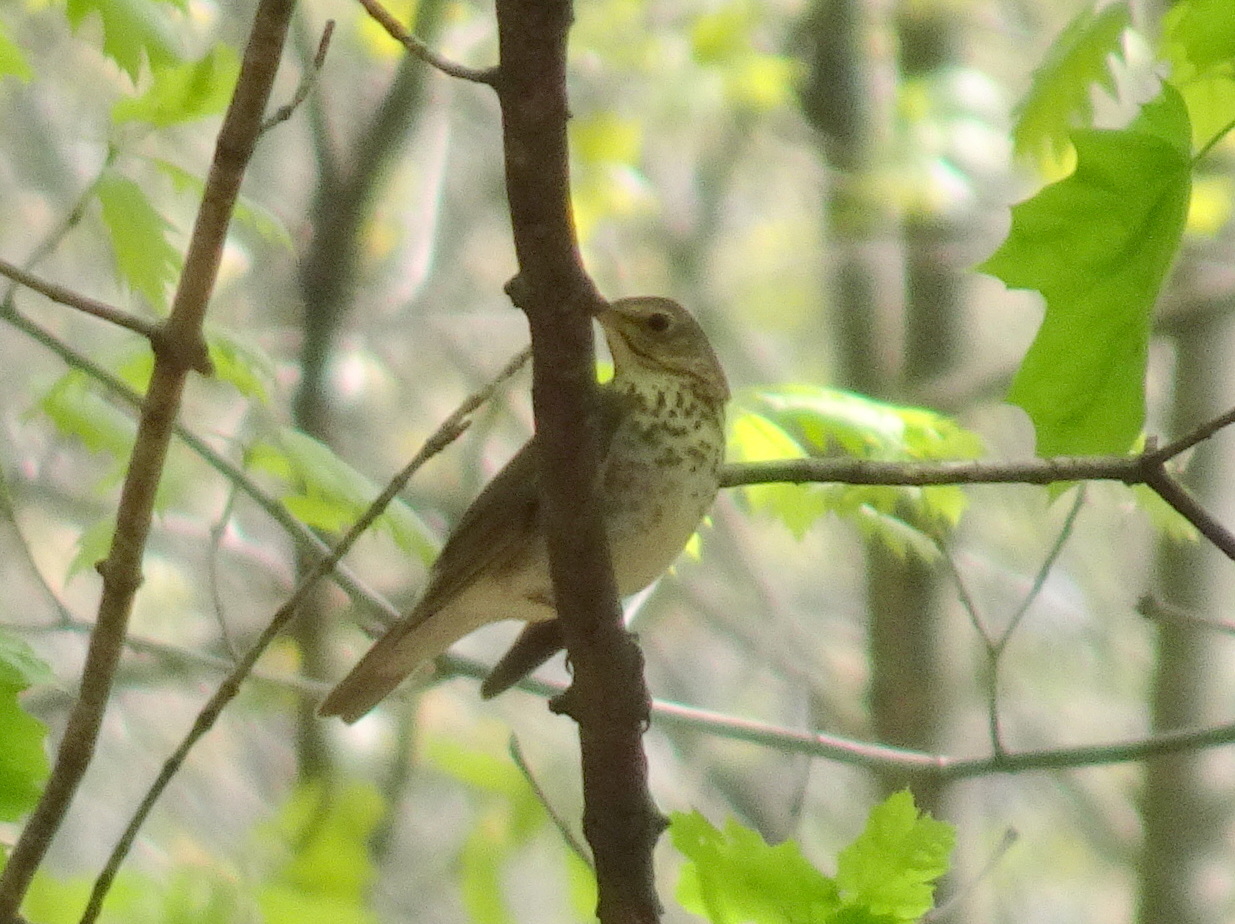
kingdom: Animalia
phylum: Chordata
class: Aves
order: Passeriformes
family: Turdidae
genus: Catharus
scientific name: Catharus ustulatus
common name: Swainson's thrush
